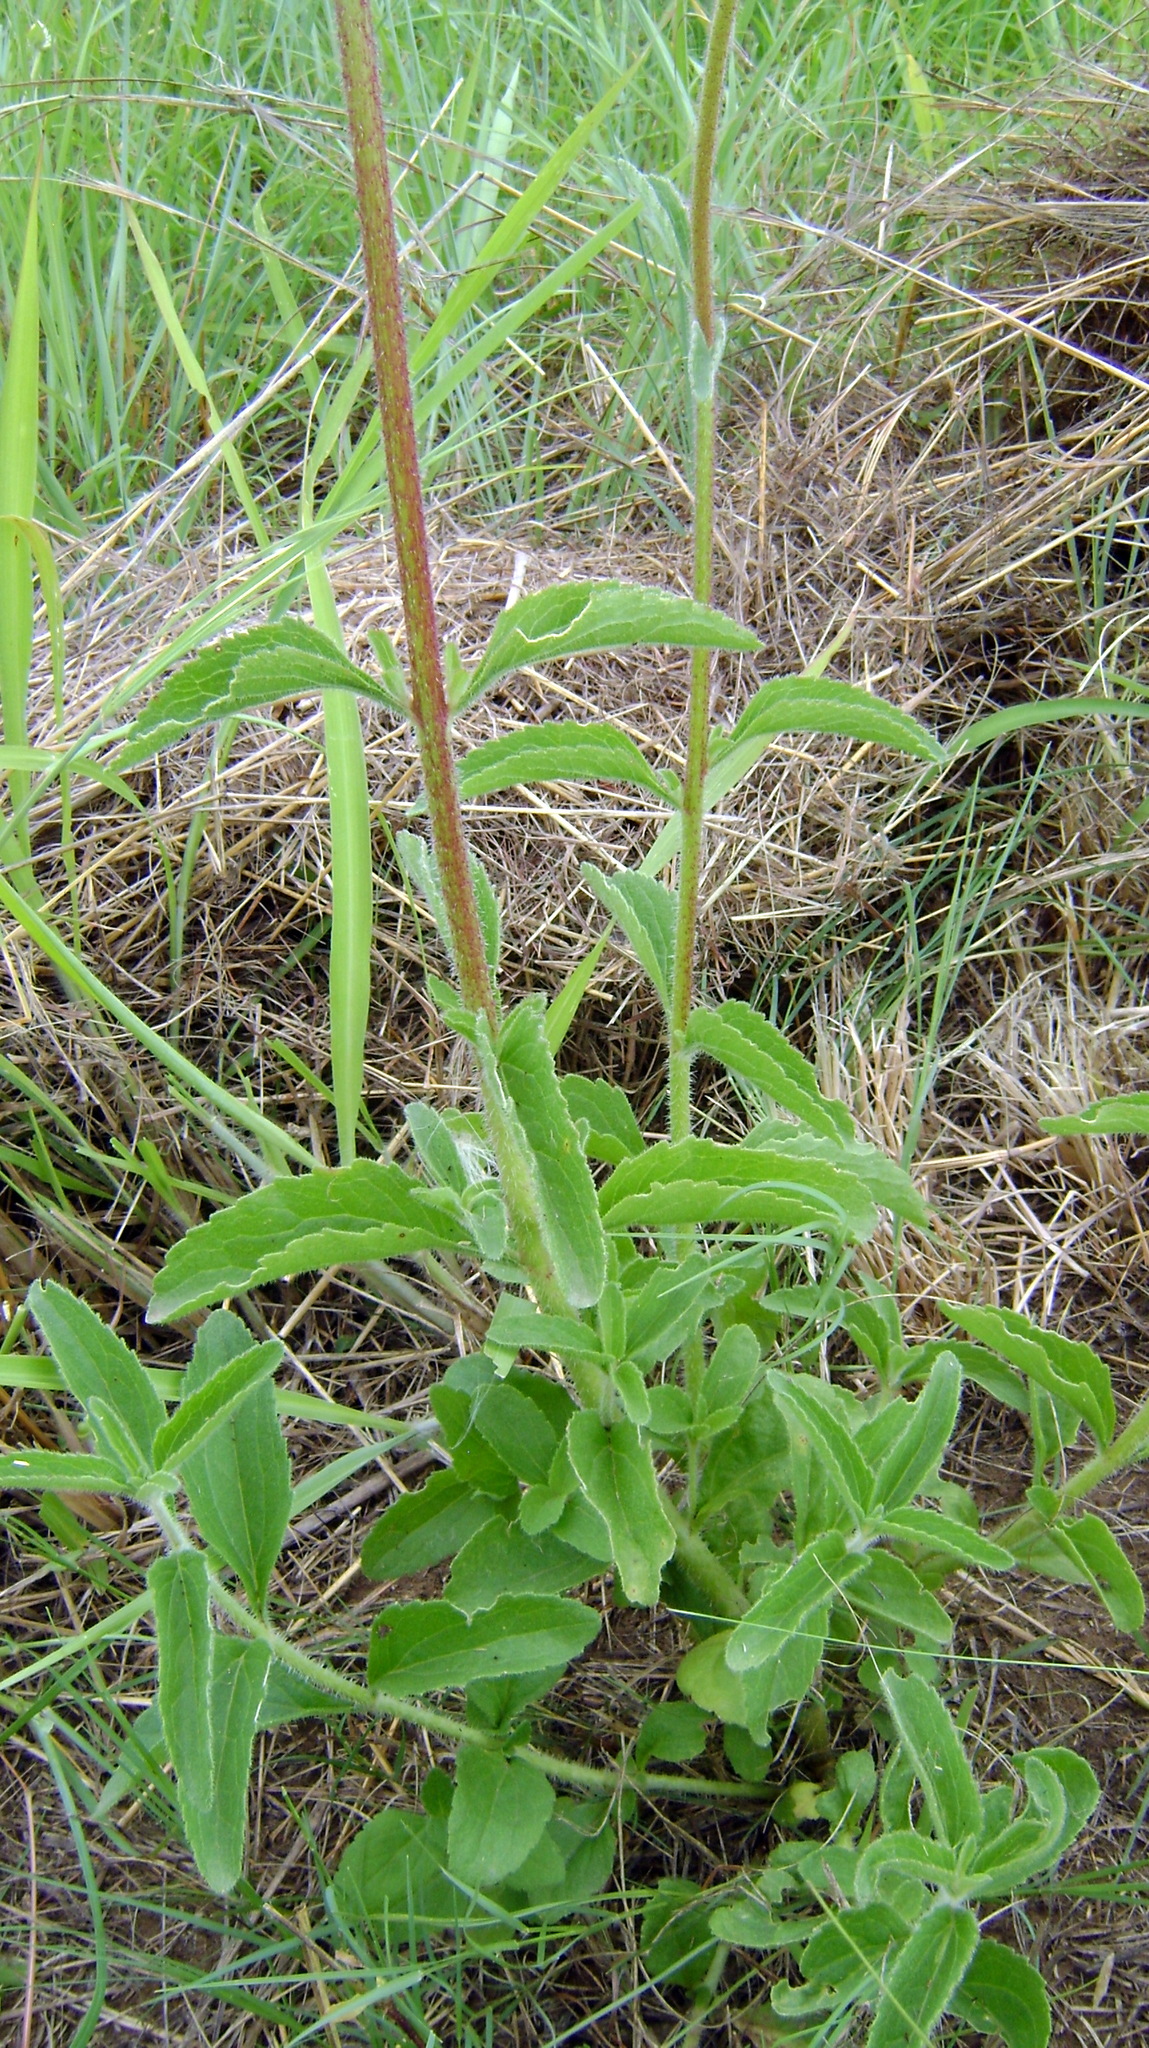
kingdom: Plantae
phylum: Tracheophyta
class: Magnoliopsida
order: Asterales
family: Asteraceae
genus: Campuloclinium
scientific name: Campuloclinium macrocephalum
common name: Pompomweed
